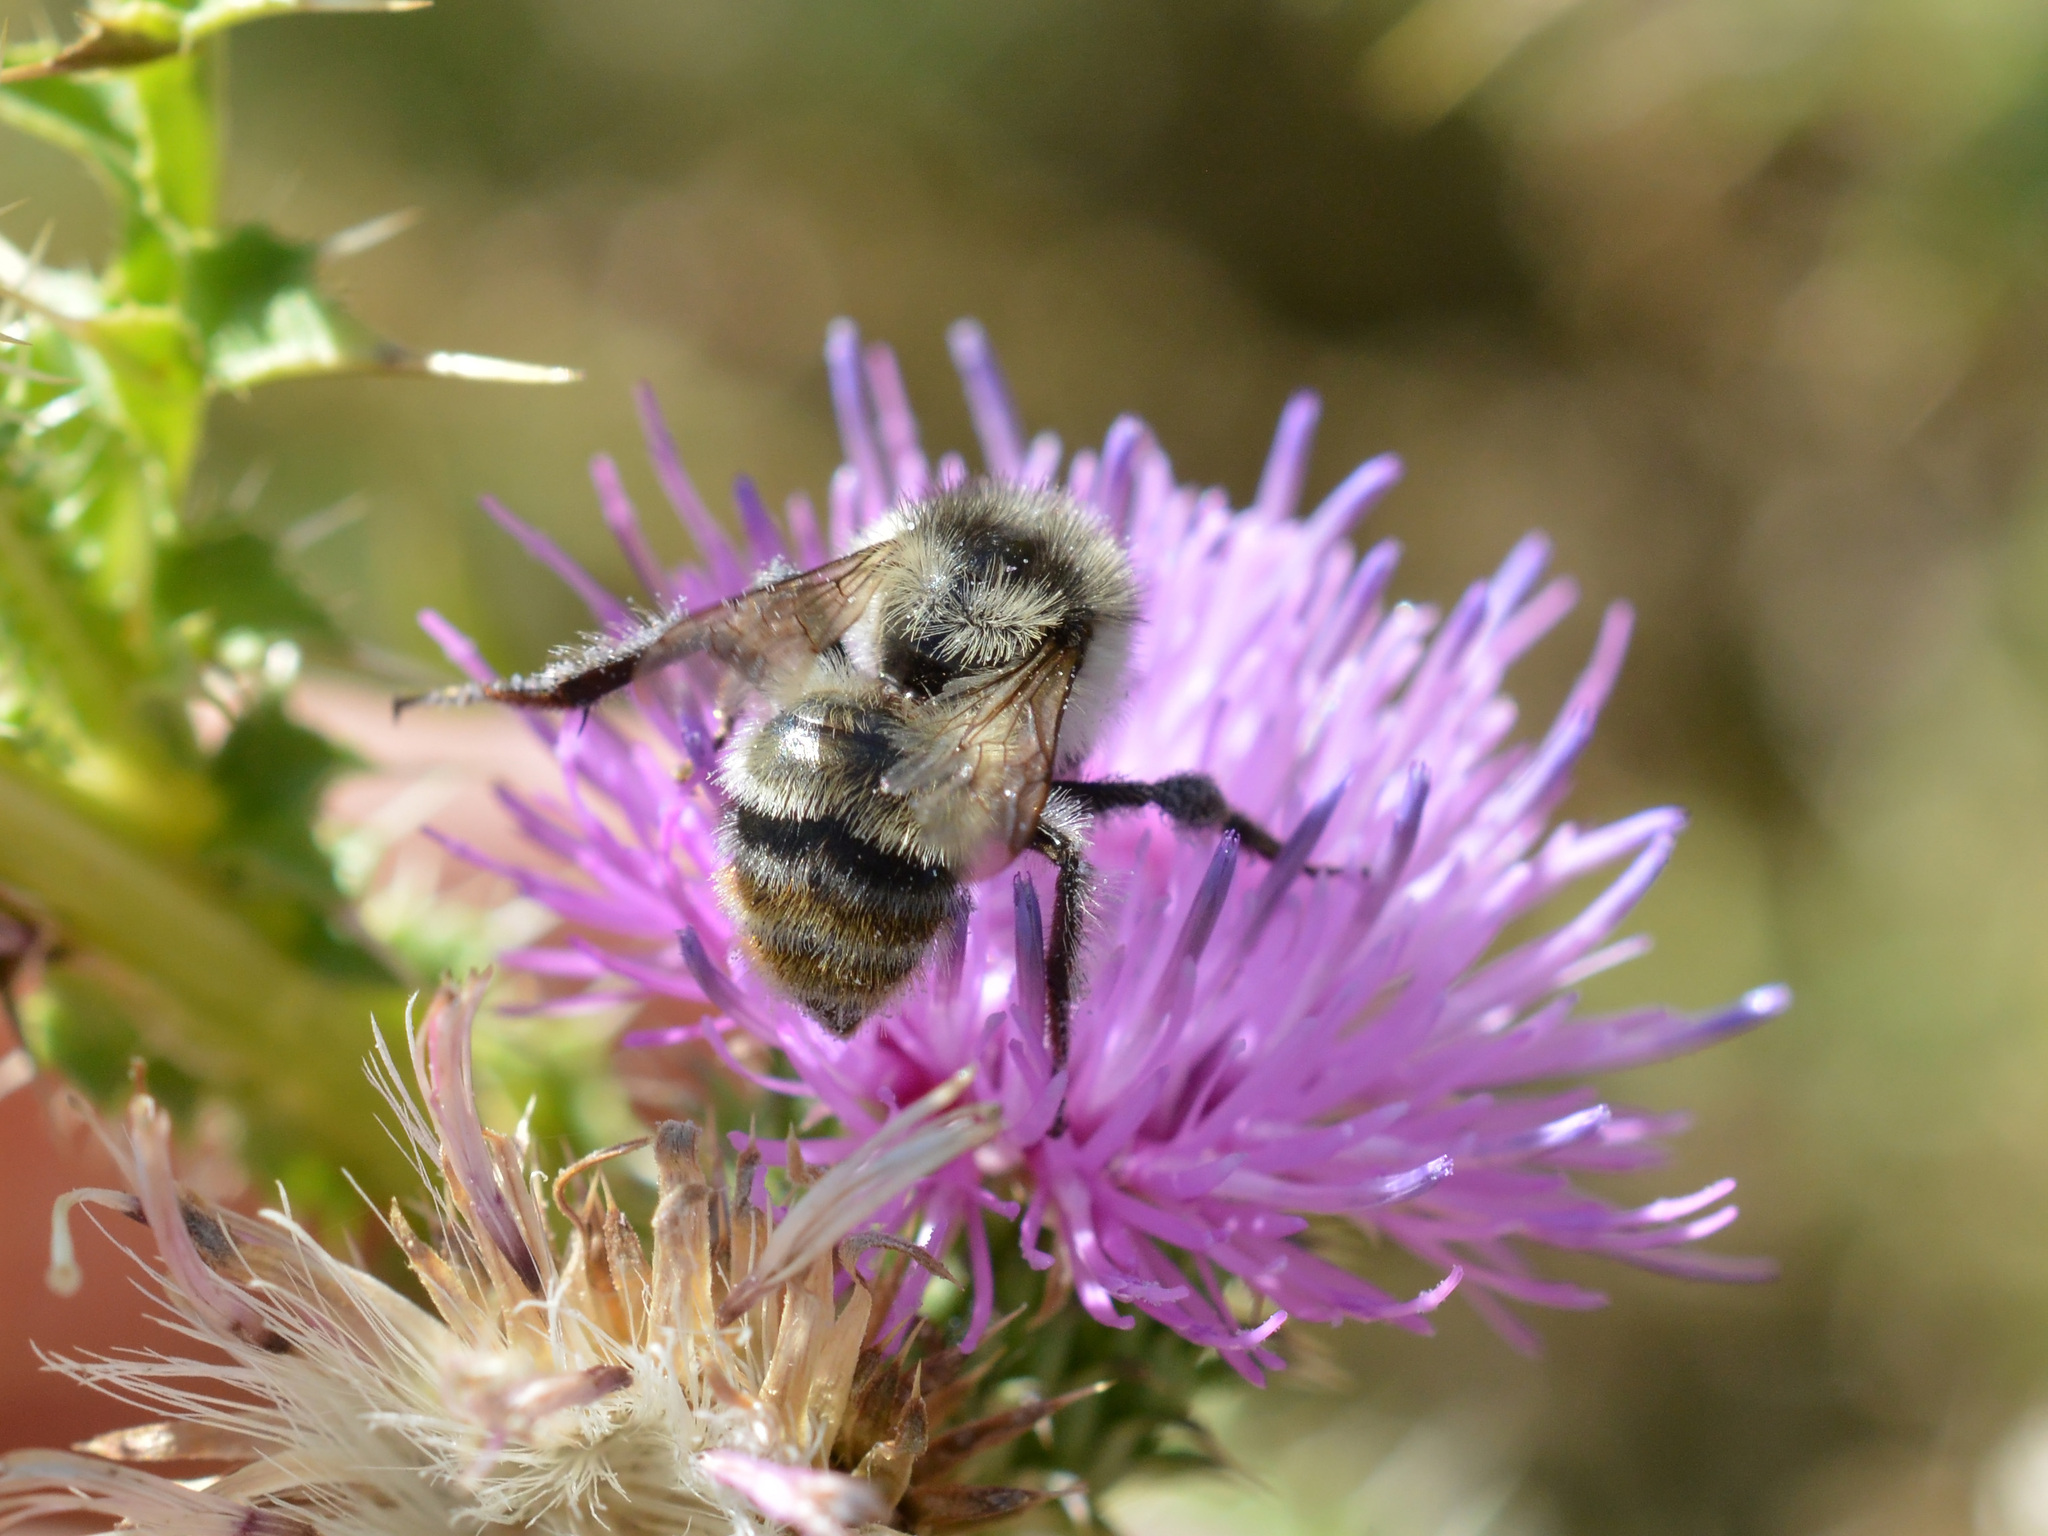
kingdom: Animalia
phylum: Arthropoda
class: Insecta
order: Hymenoptera
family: Apidae
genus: Bombus
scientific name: Bombus sylvarum
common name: Shrill carder bee
